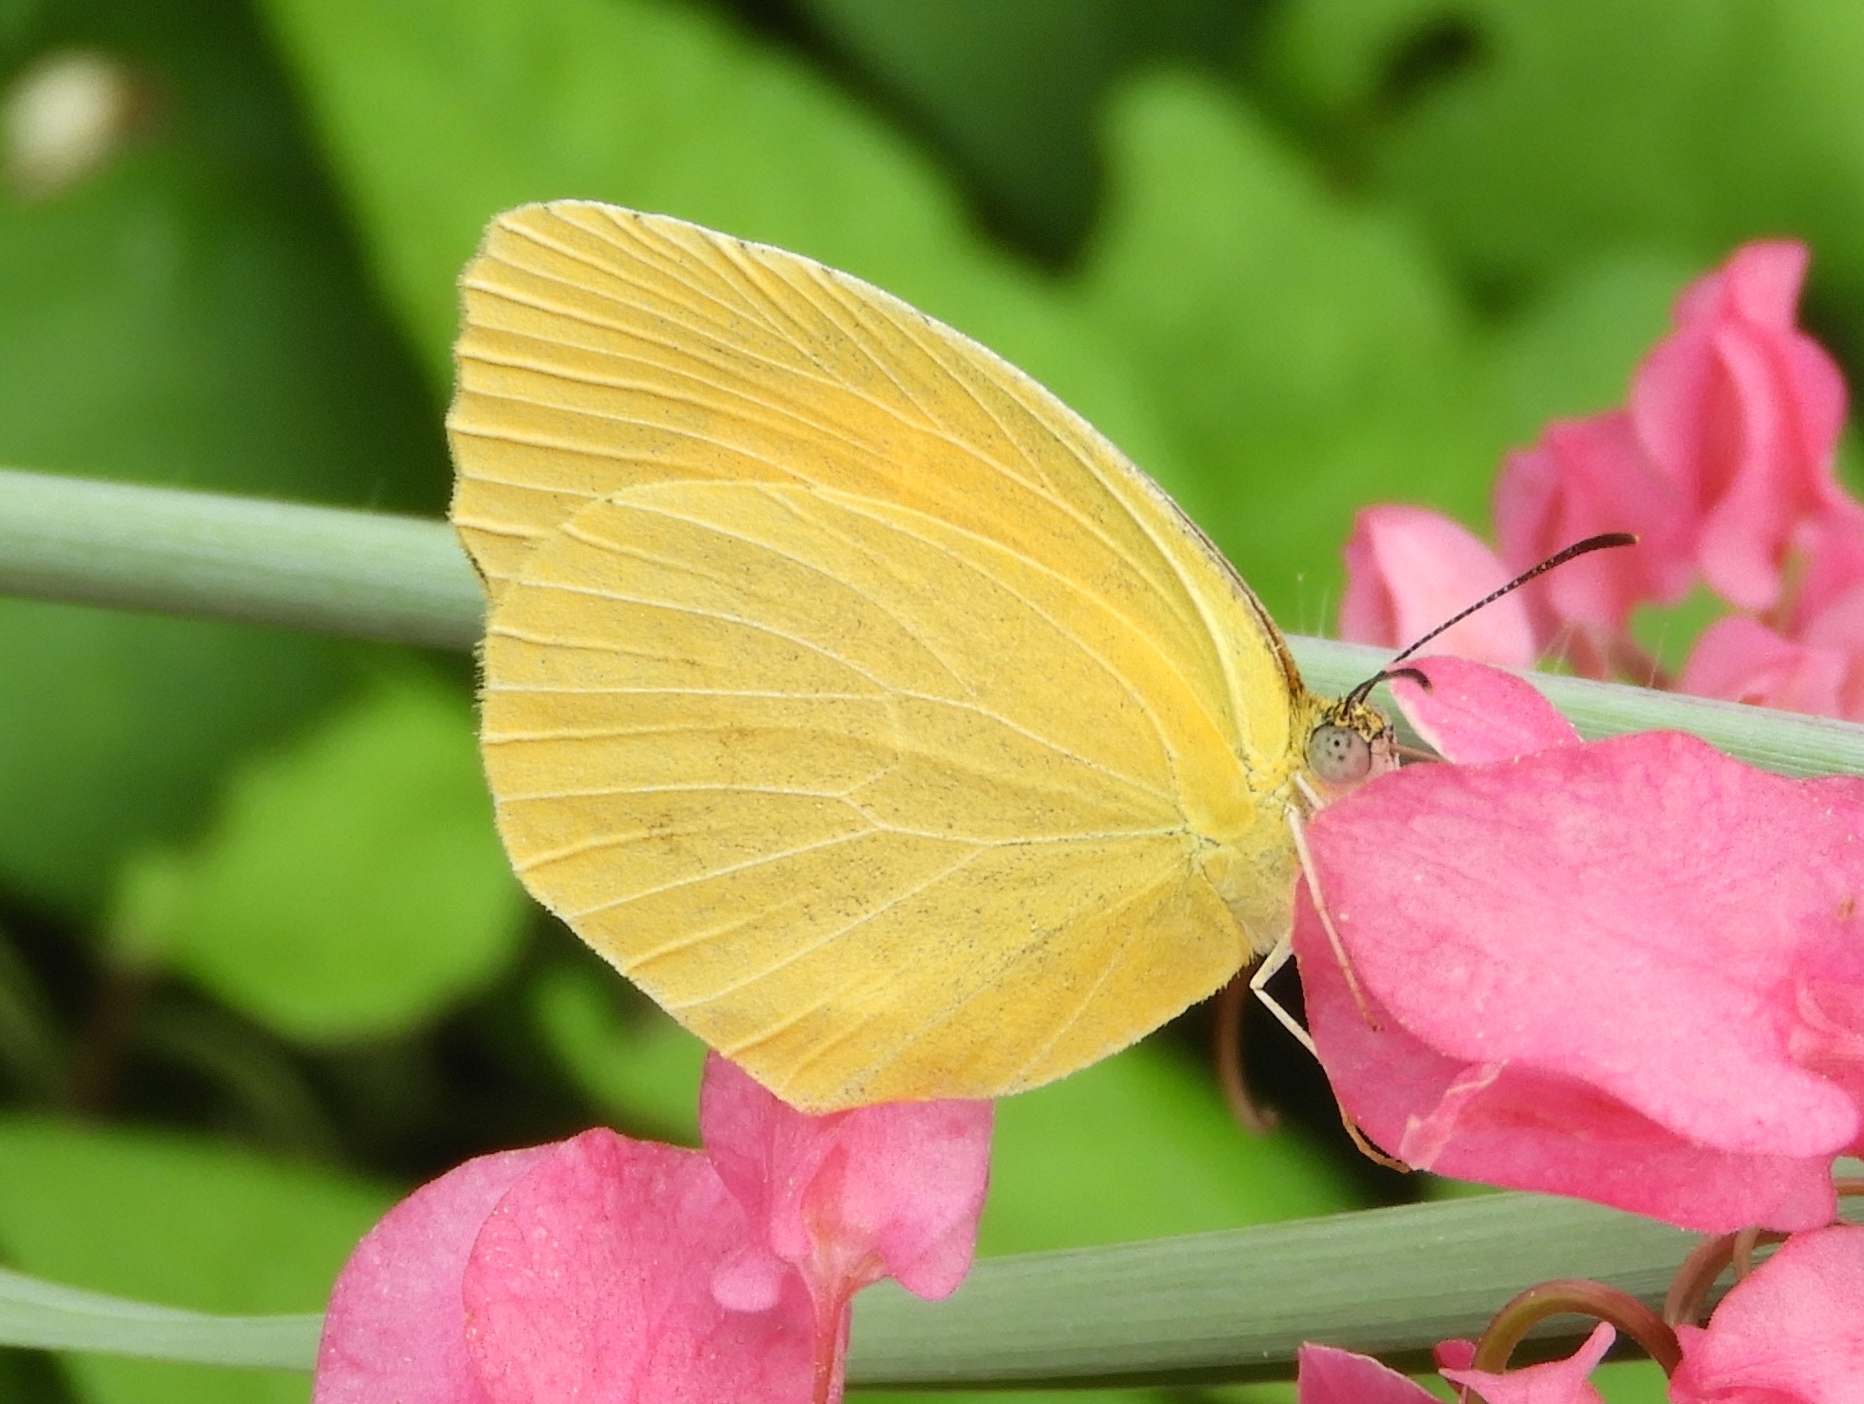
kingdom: Animalia
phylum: Arthropoda
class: Insecta
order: Lepidoptera
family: Pieridae
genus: Pyrisitia
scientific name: Pyrisitia proterpia
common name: Tailed orange
